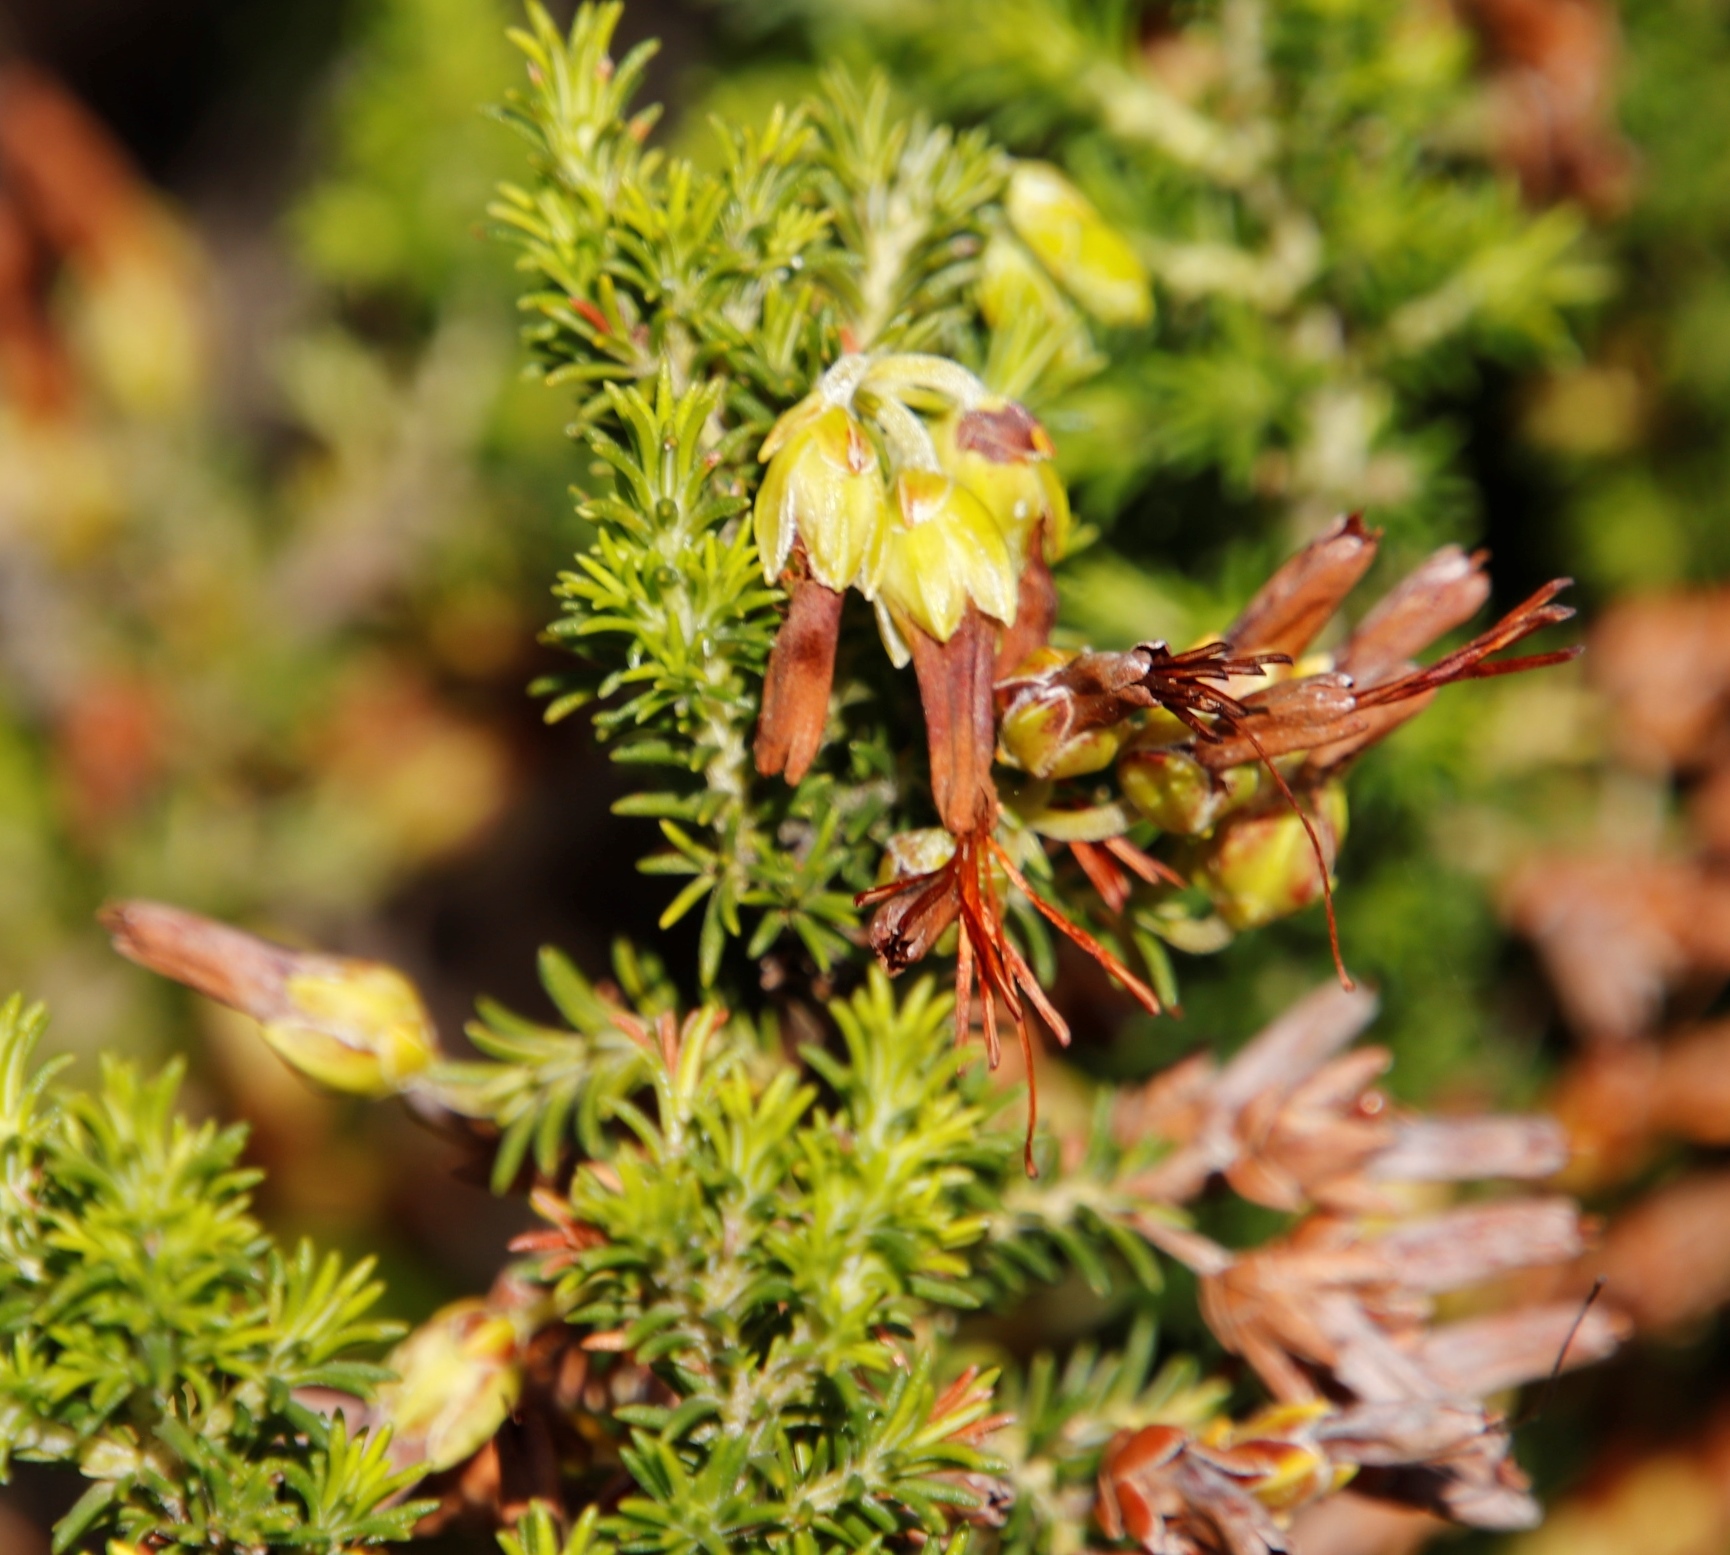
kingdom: Plantae
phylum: Tracheophyta
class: Magnoliopsida
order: Ericales
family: Ericaceae
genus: Erica
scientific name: Erica coccinea
